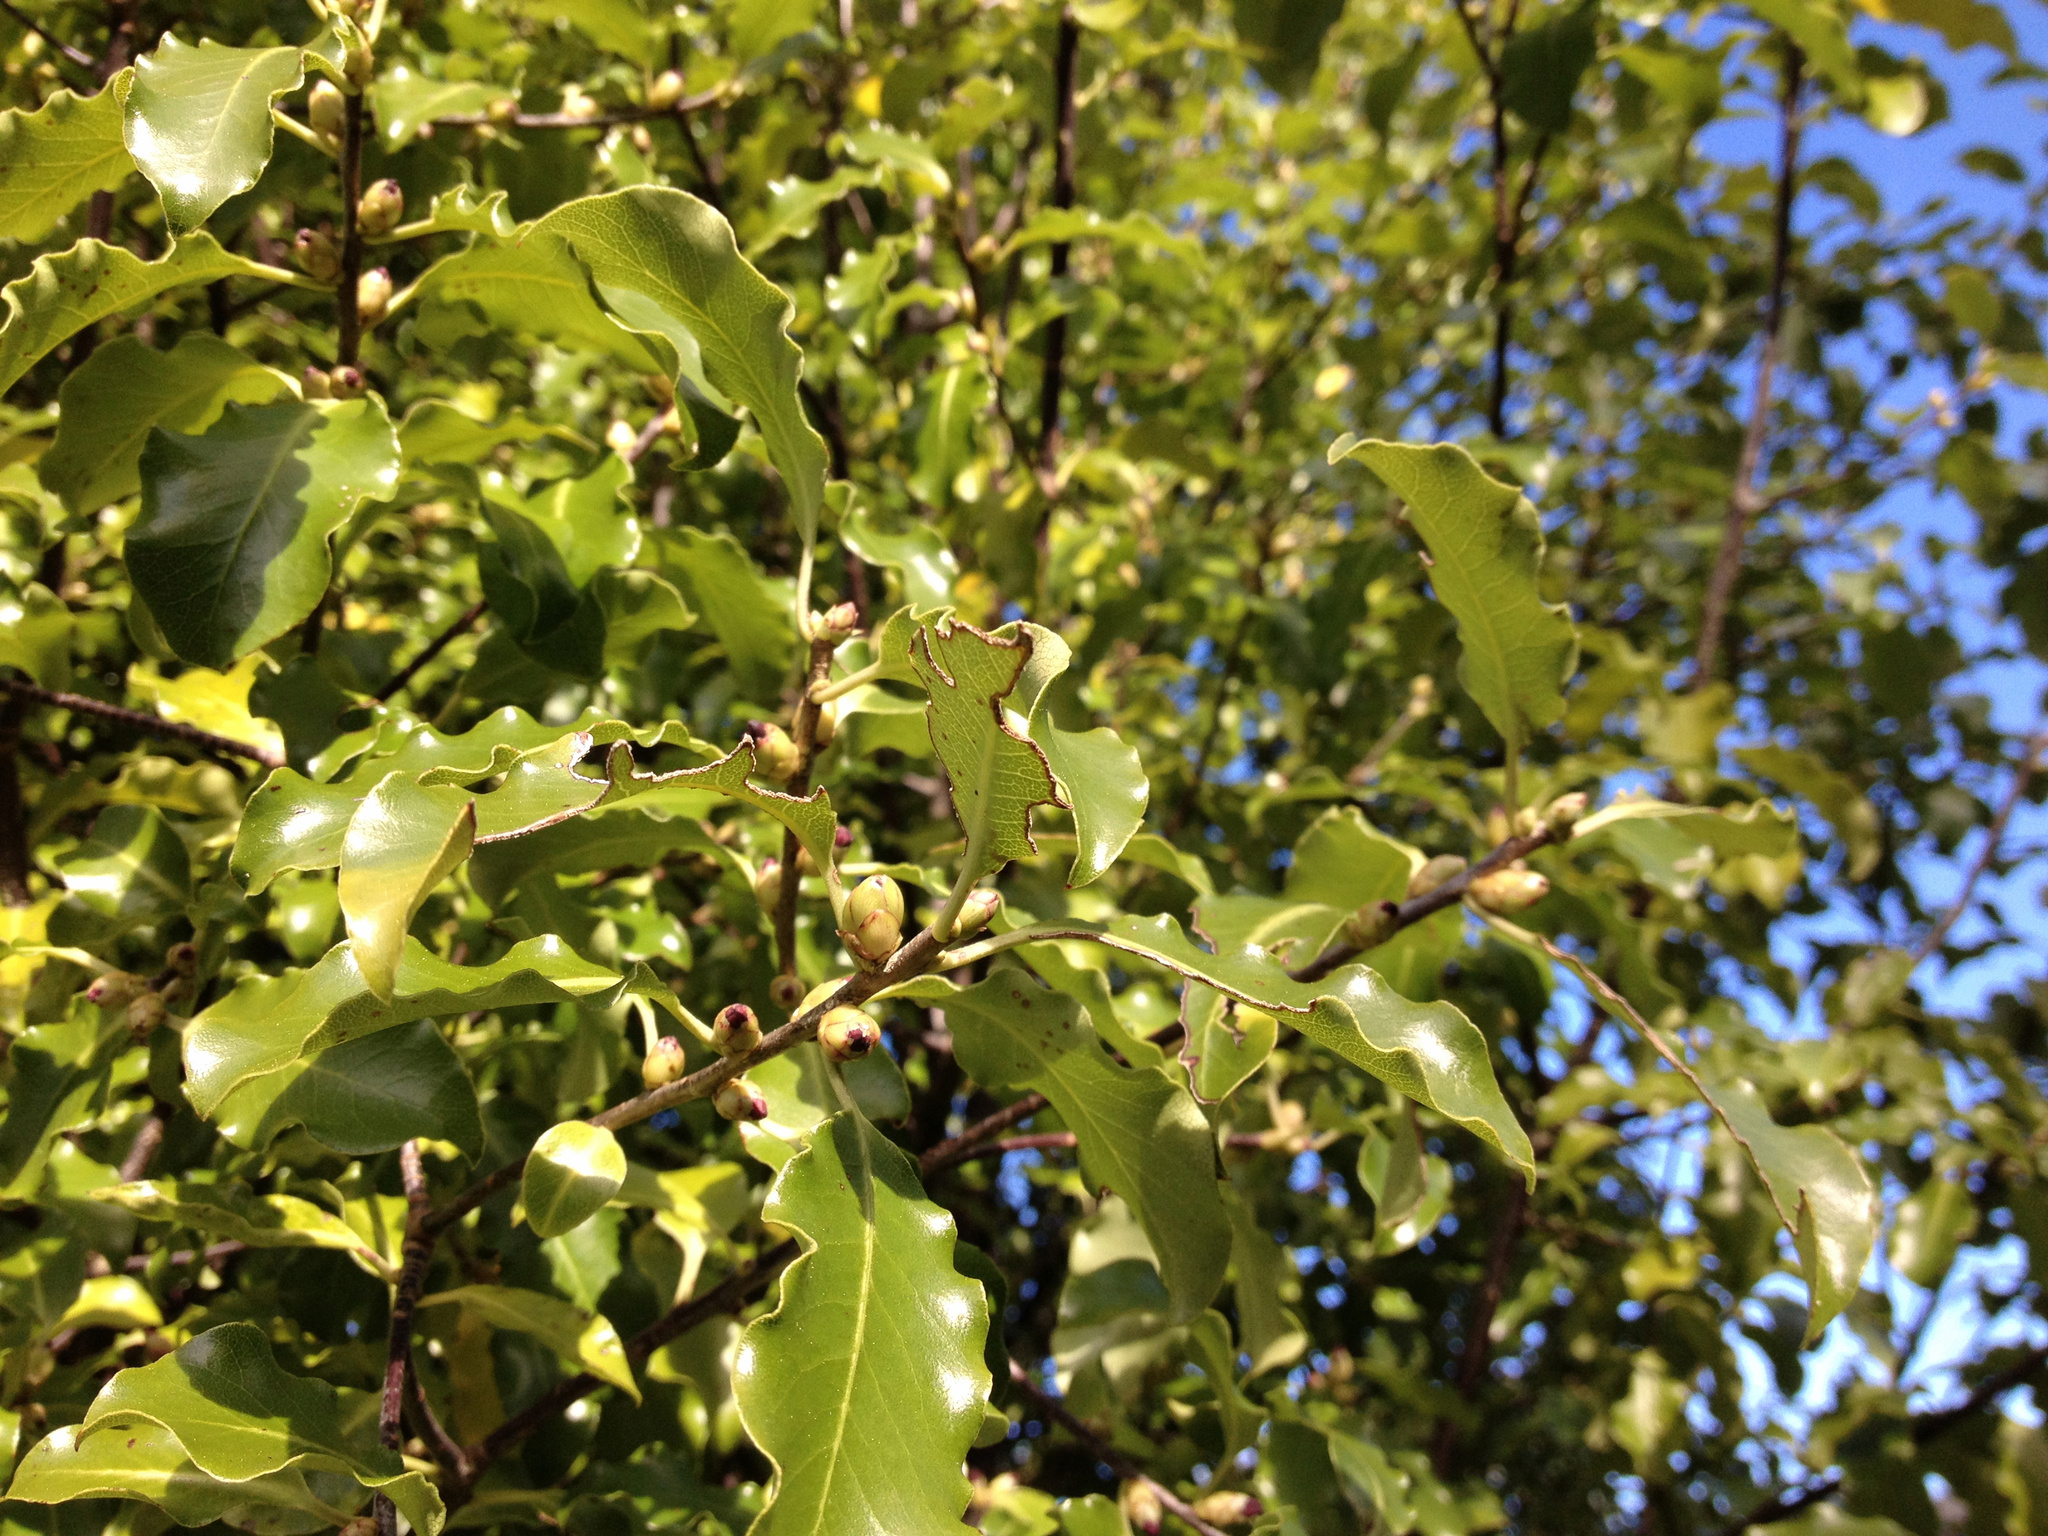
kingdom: Plantae
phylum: Tracheophyta
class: Magnoliopsida
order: Apiales
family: Pittosporaceae
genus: Pittosporum
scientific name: Pittosporum tenuifolium
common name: Kohuhu
